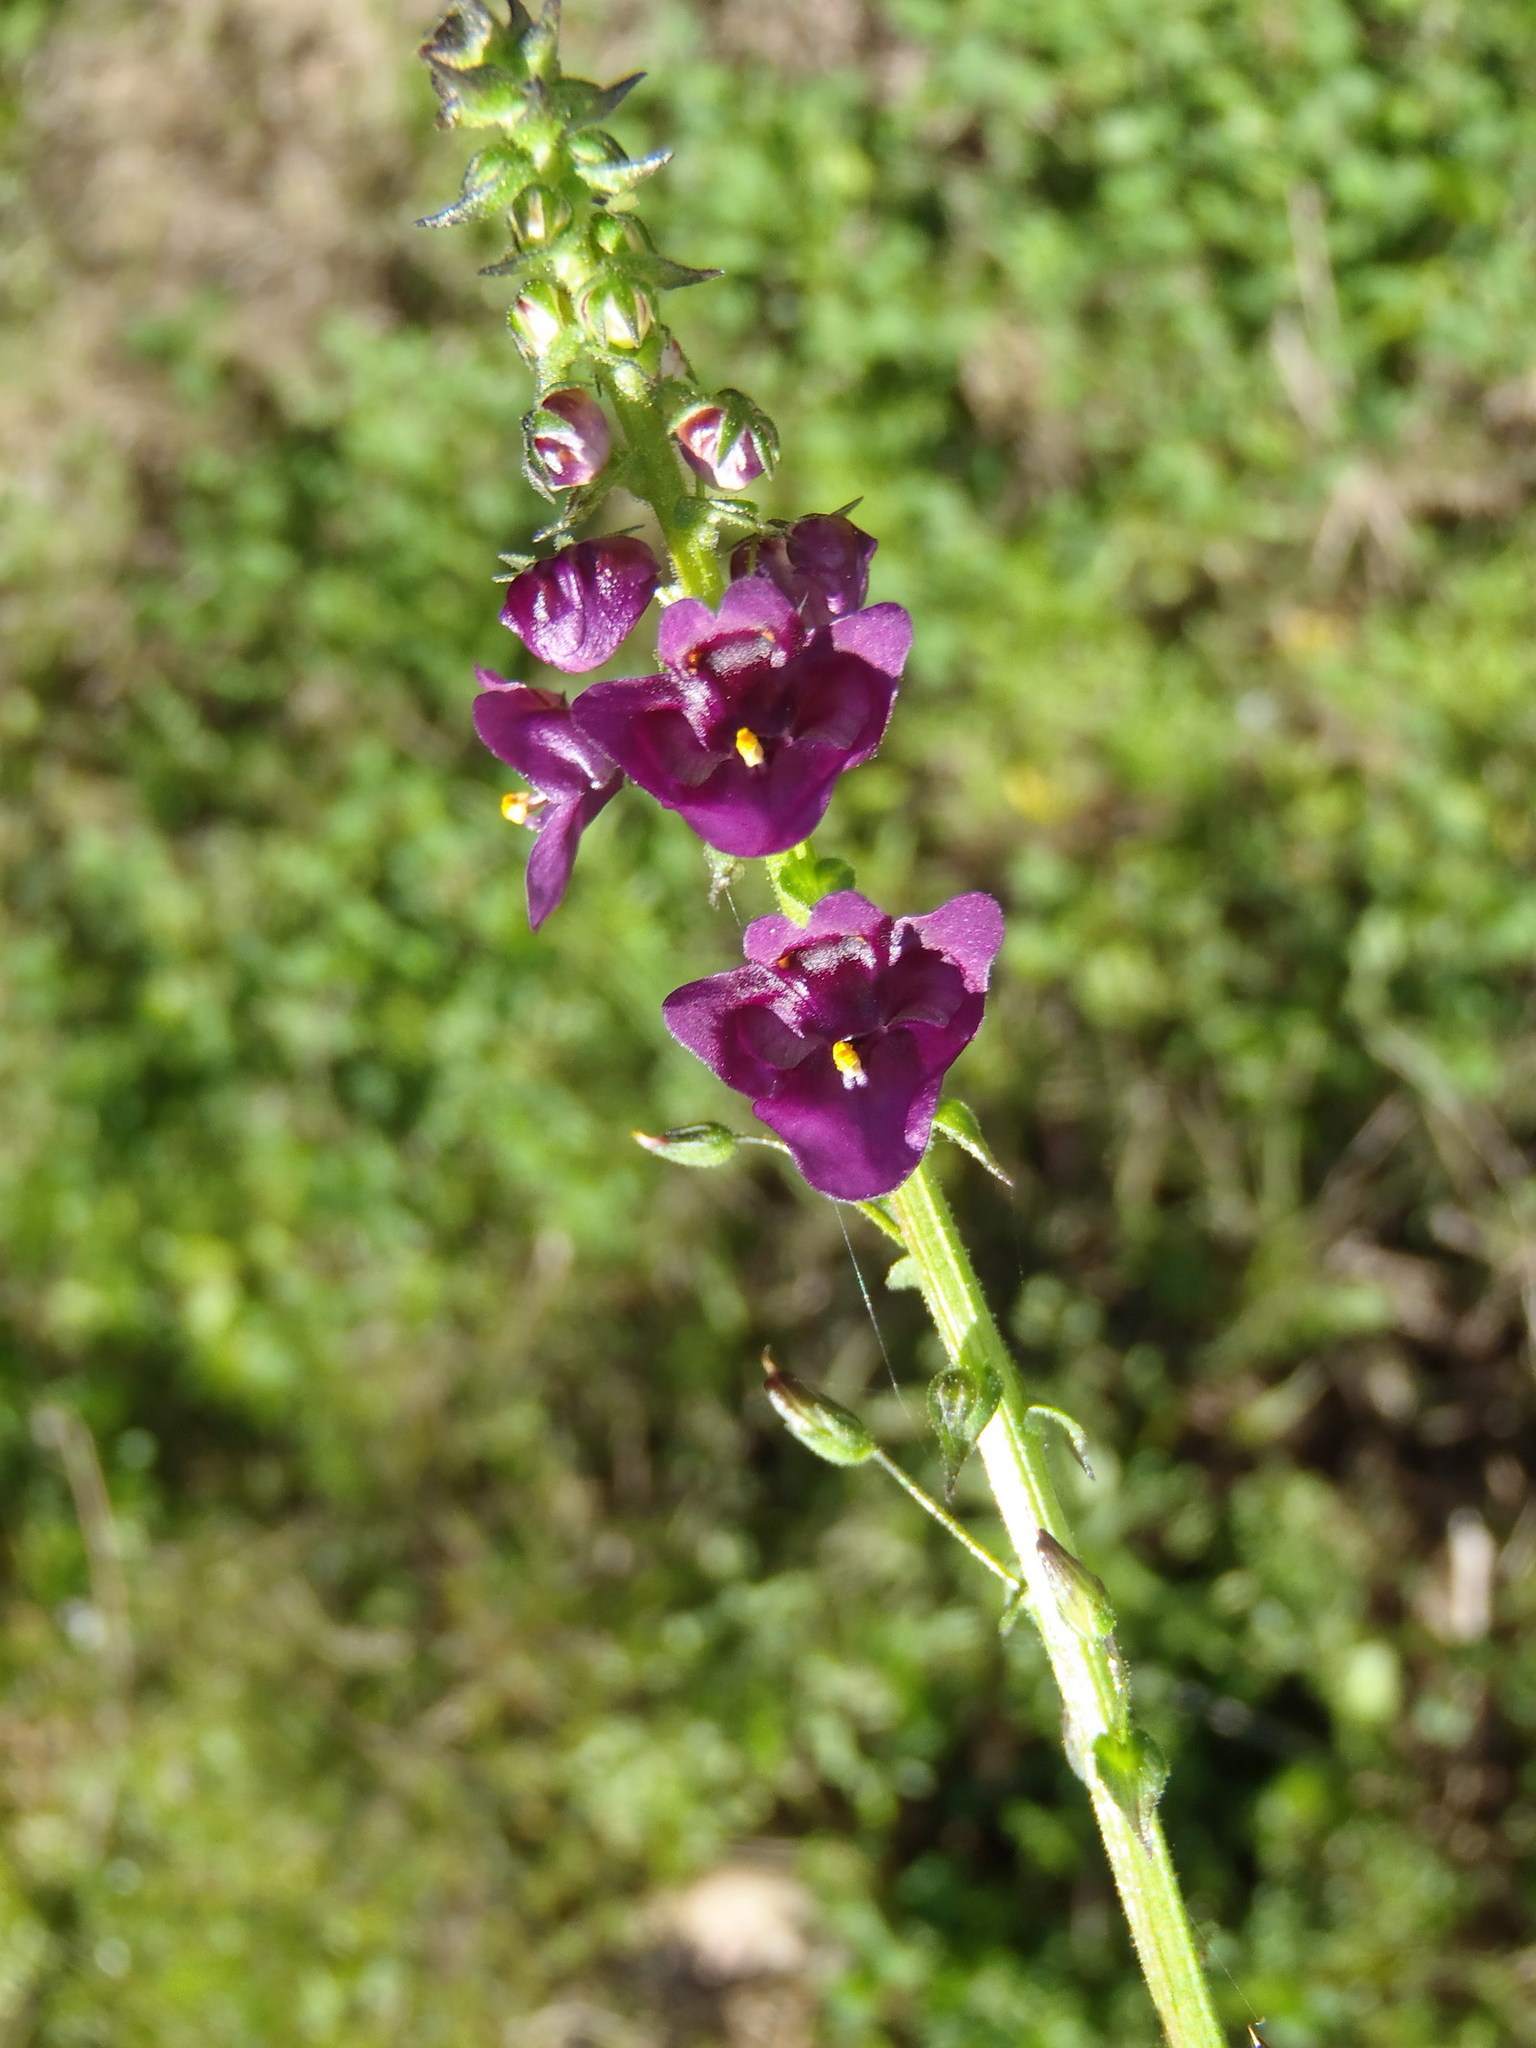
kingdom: Plantae
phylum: Tracheophyta
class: Magnoliopsida
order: Lamiales
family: Scrophulariaceae
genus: Diascia
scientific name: Diascia parviflora
